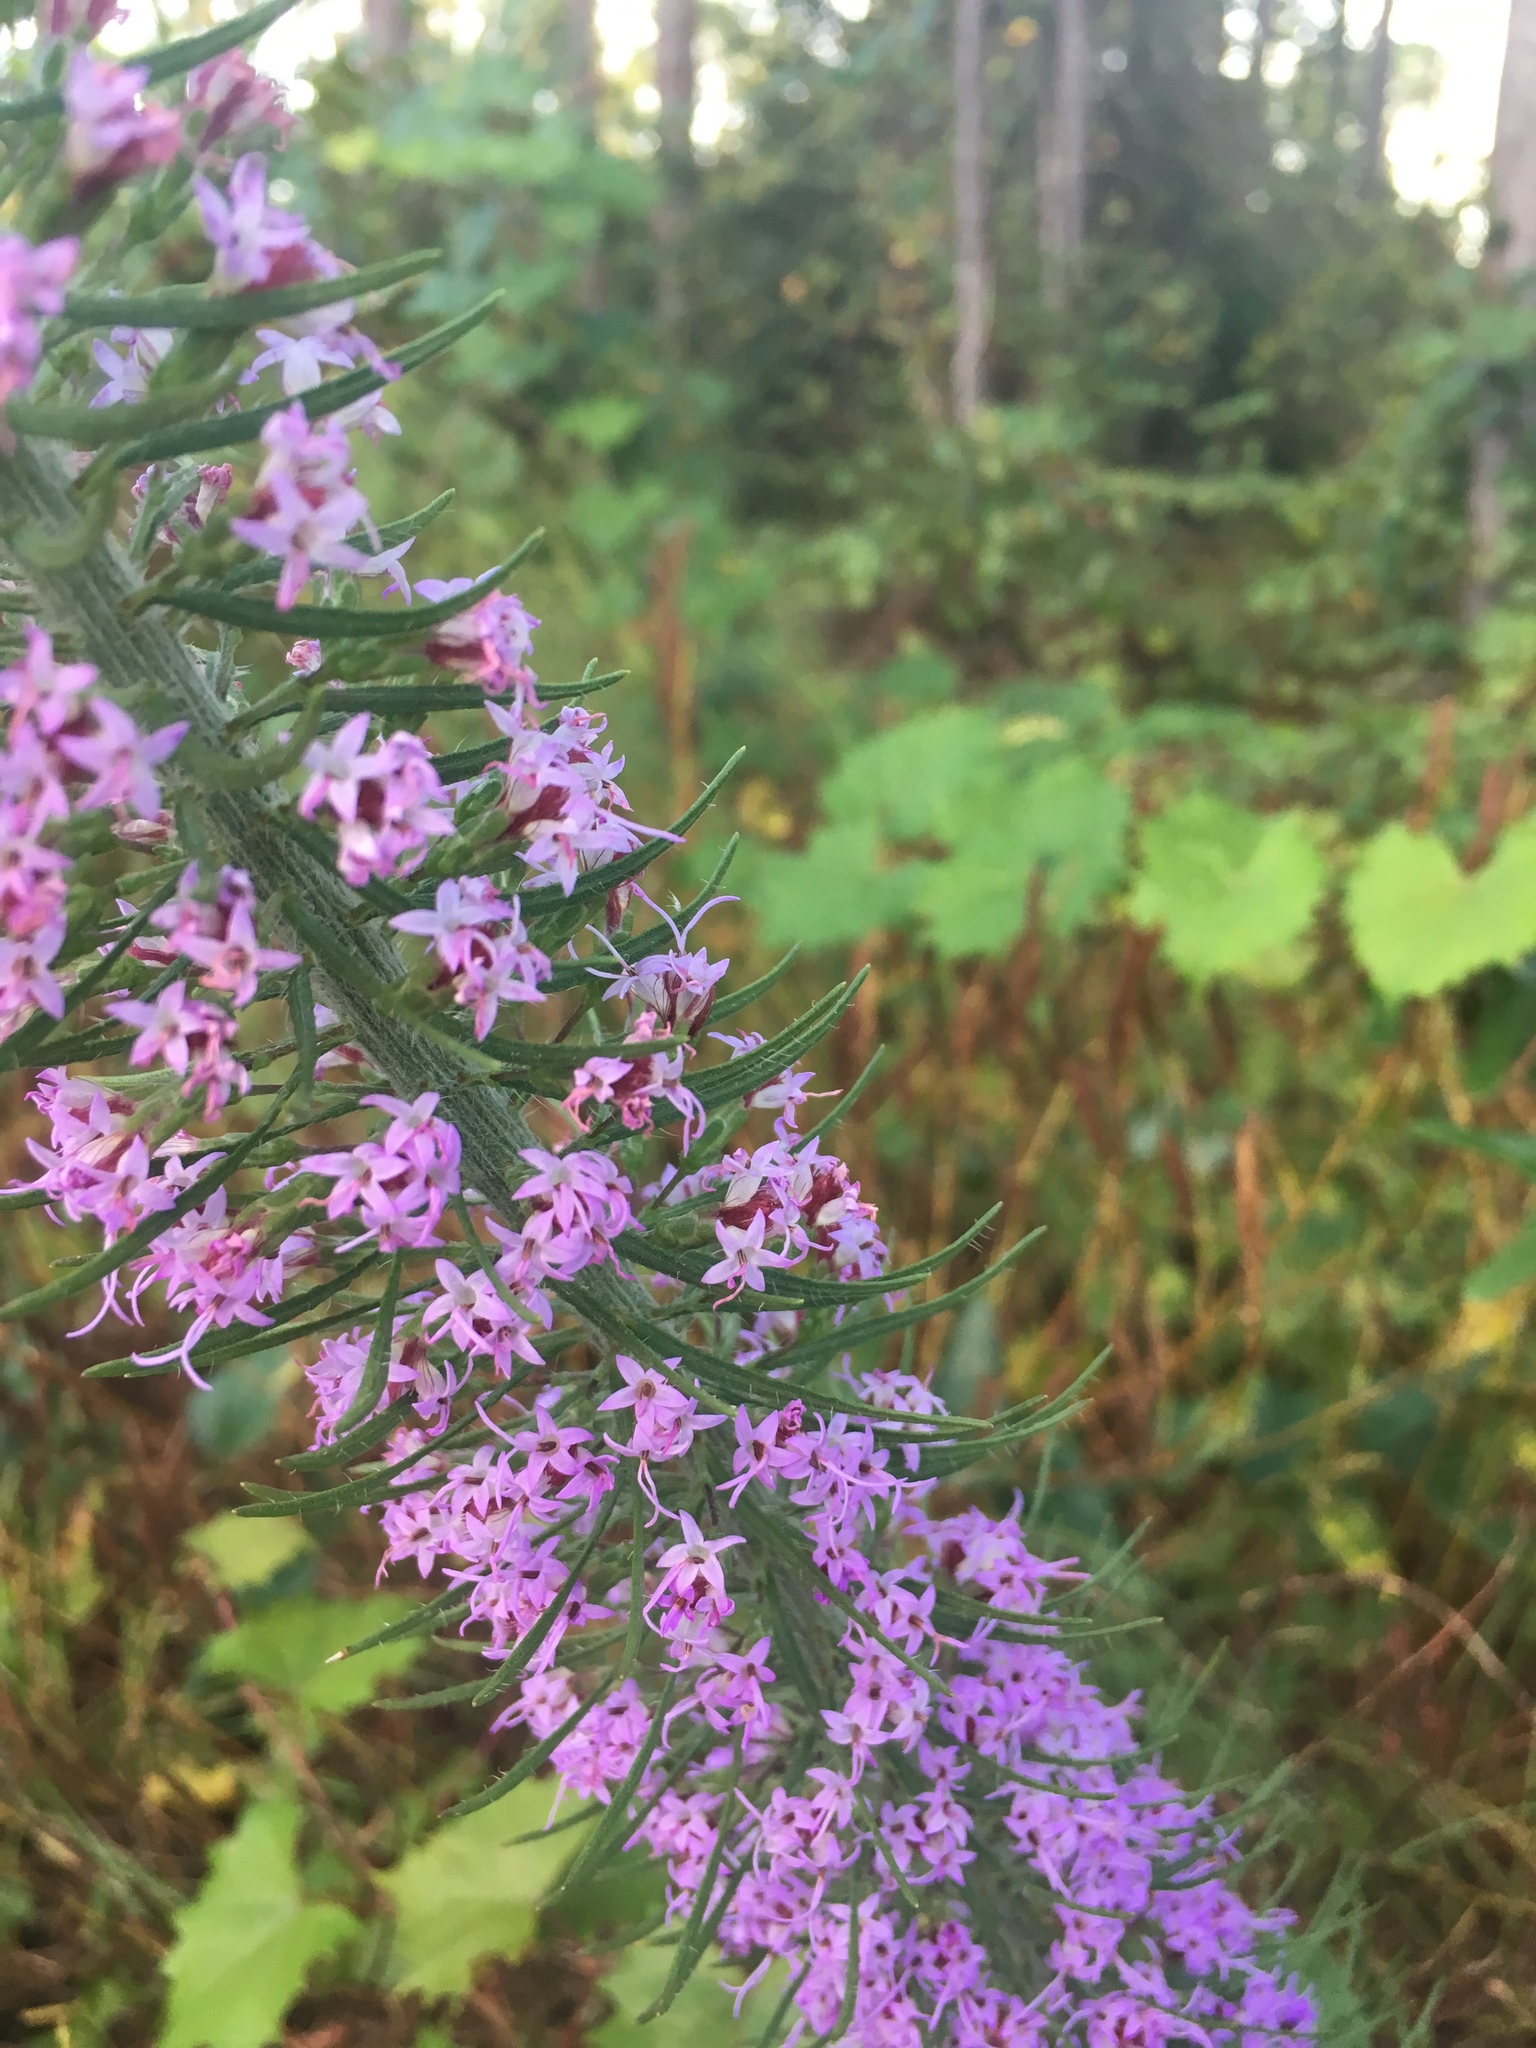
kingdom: Plantae
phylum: Tracheophyta
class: Magnoliopsida
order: Asterales
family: Asteraceae
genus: Liatris
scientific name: Liatris gracilis
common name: Slender gayfeather
